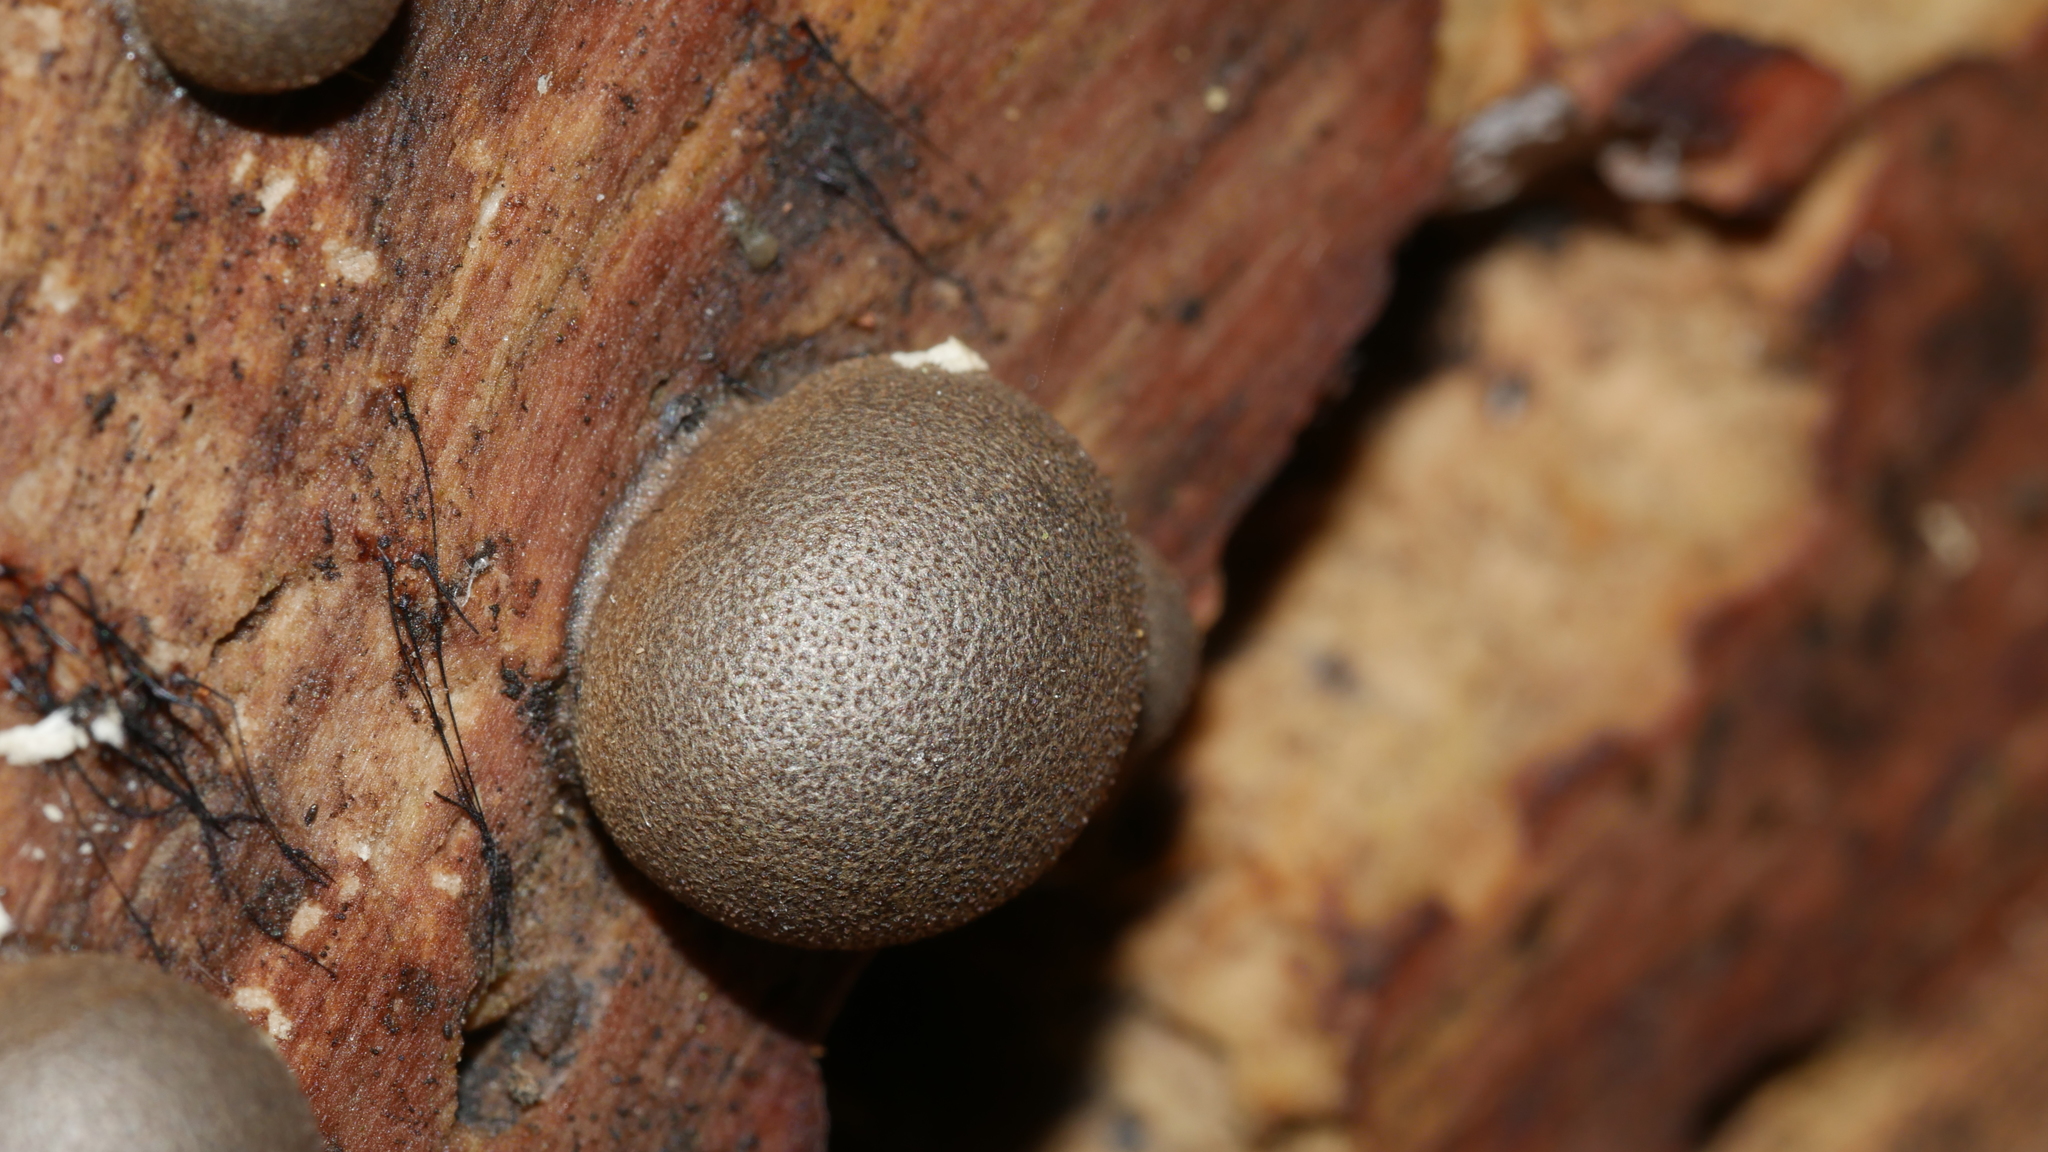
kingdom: Protozoa
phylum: Mycetozoa
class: Myxomycetes
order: Cribrariales
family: Tubiferaceae
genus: Lycogala
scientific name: Lycogala epidendrum
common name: Wolf's milk
